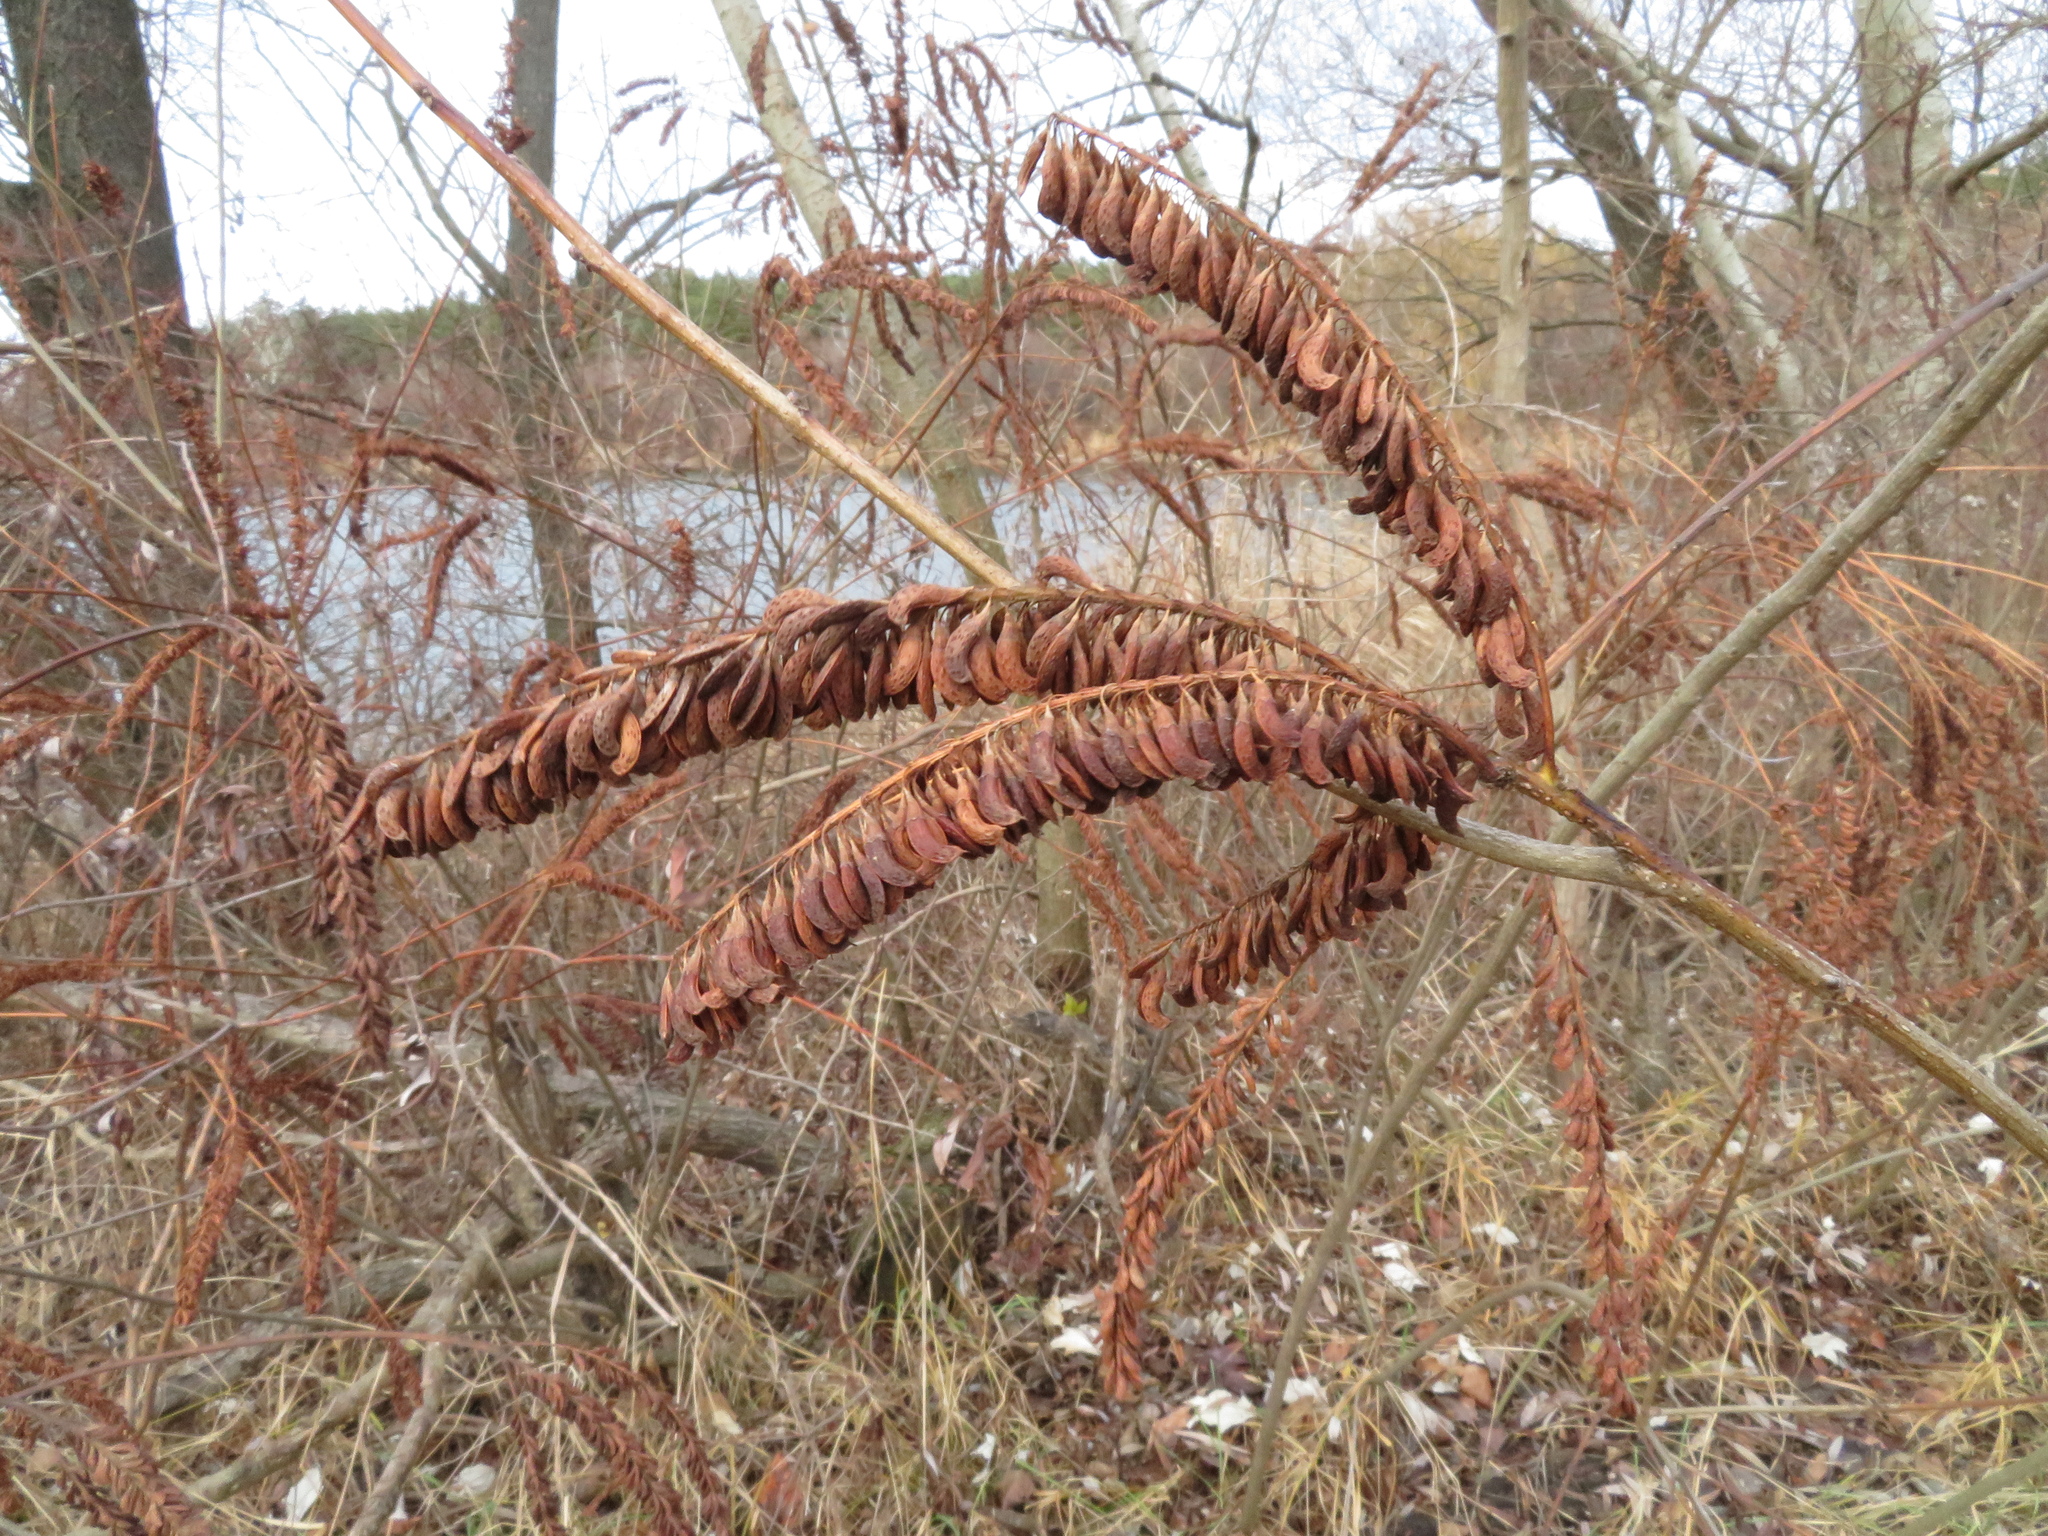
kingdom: Plantae
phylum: Tracheophyta
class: Magnoliopsida
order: Fabales
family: Fabaceae
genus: Amorpha
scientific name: Amorpha fruticosa
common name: False indigo
